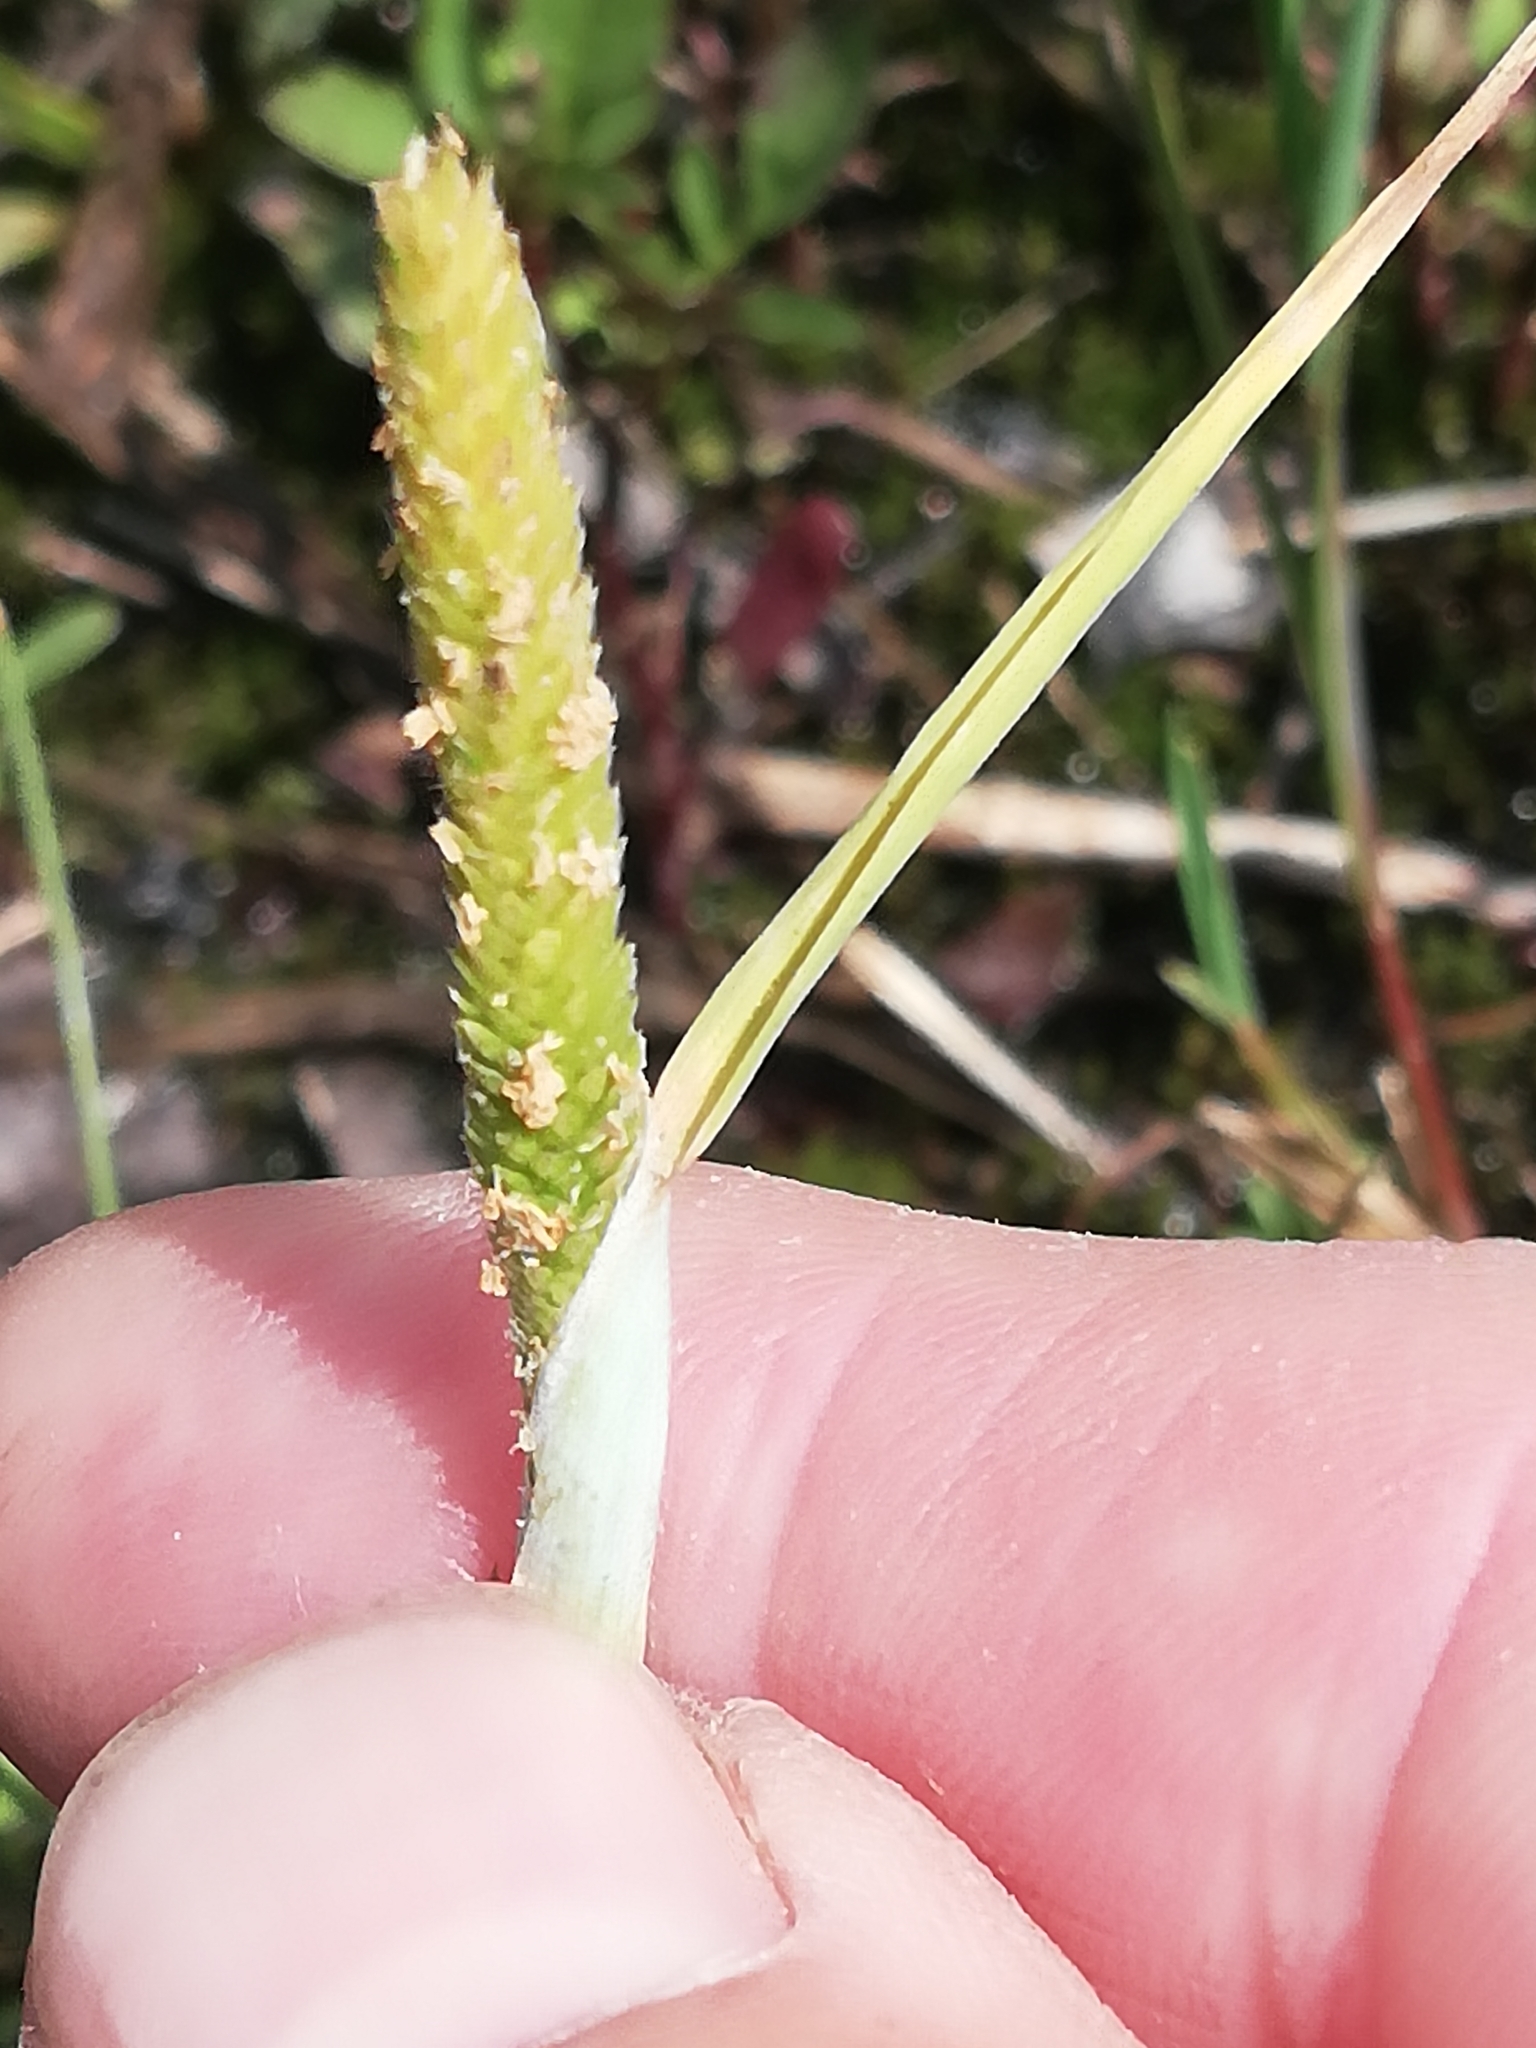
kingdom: Plantae
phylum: Tracheophyta
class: Liliopsida
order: Poales
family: Poaceae
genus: Alopecurus
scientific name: Alopecurus aequalis
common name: Orange foxtail
